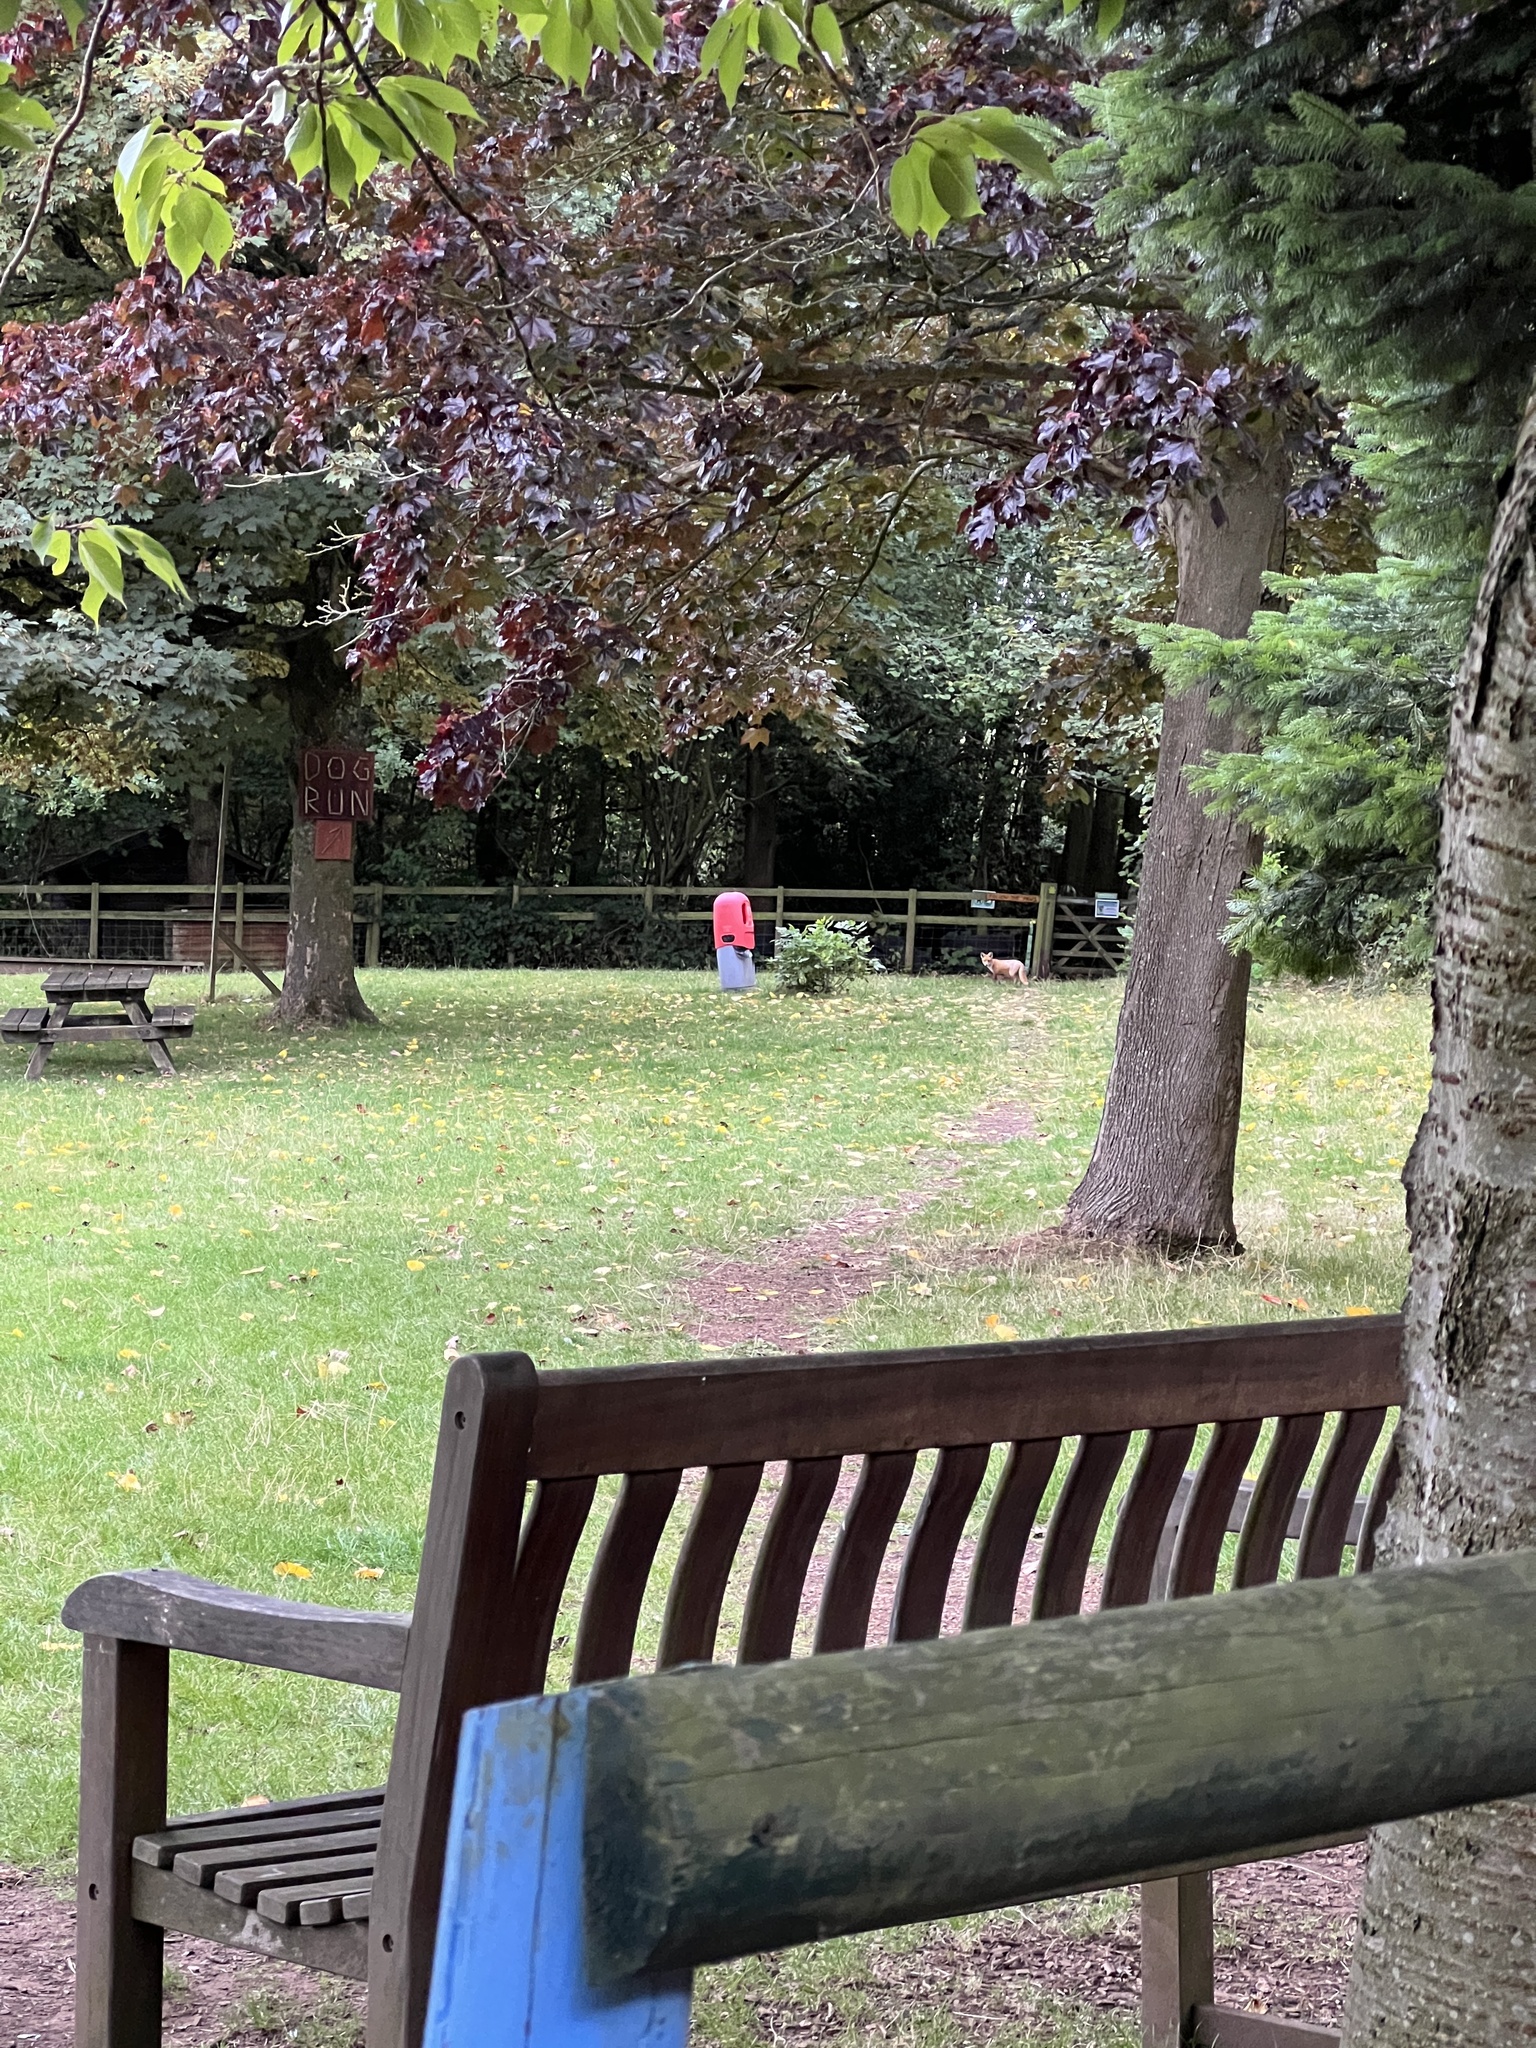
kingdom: Animalia
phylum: Chordata
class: Mammalia
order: Carnivora
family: Canidae
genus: Vulpes
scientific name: Vulpes vulpes
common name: Red fox
